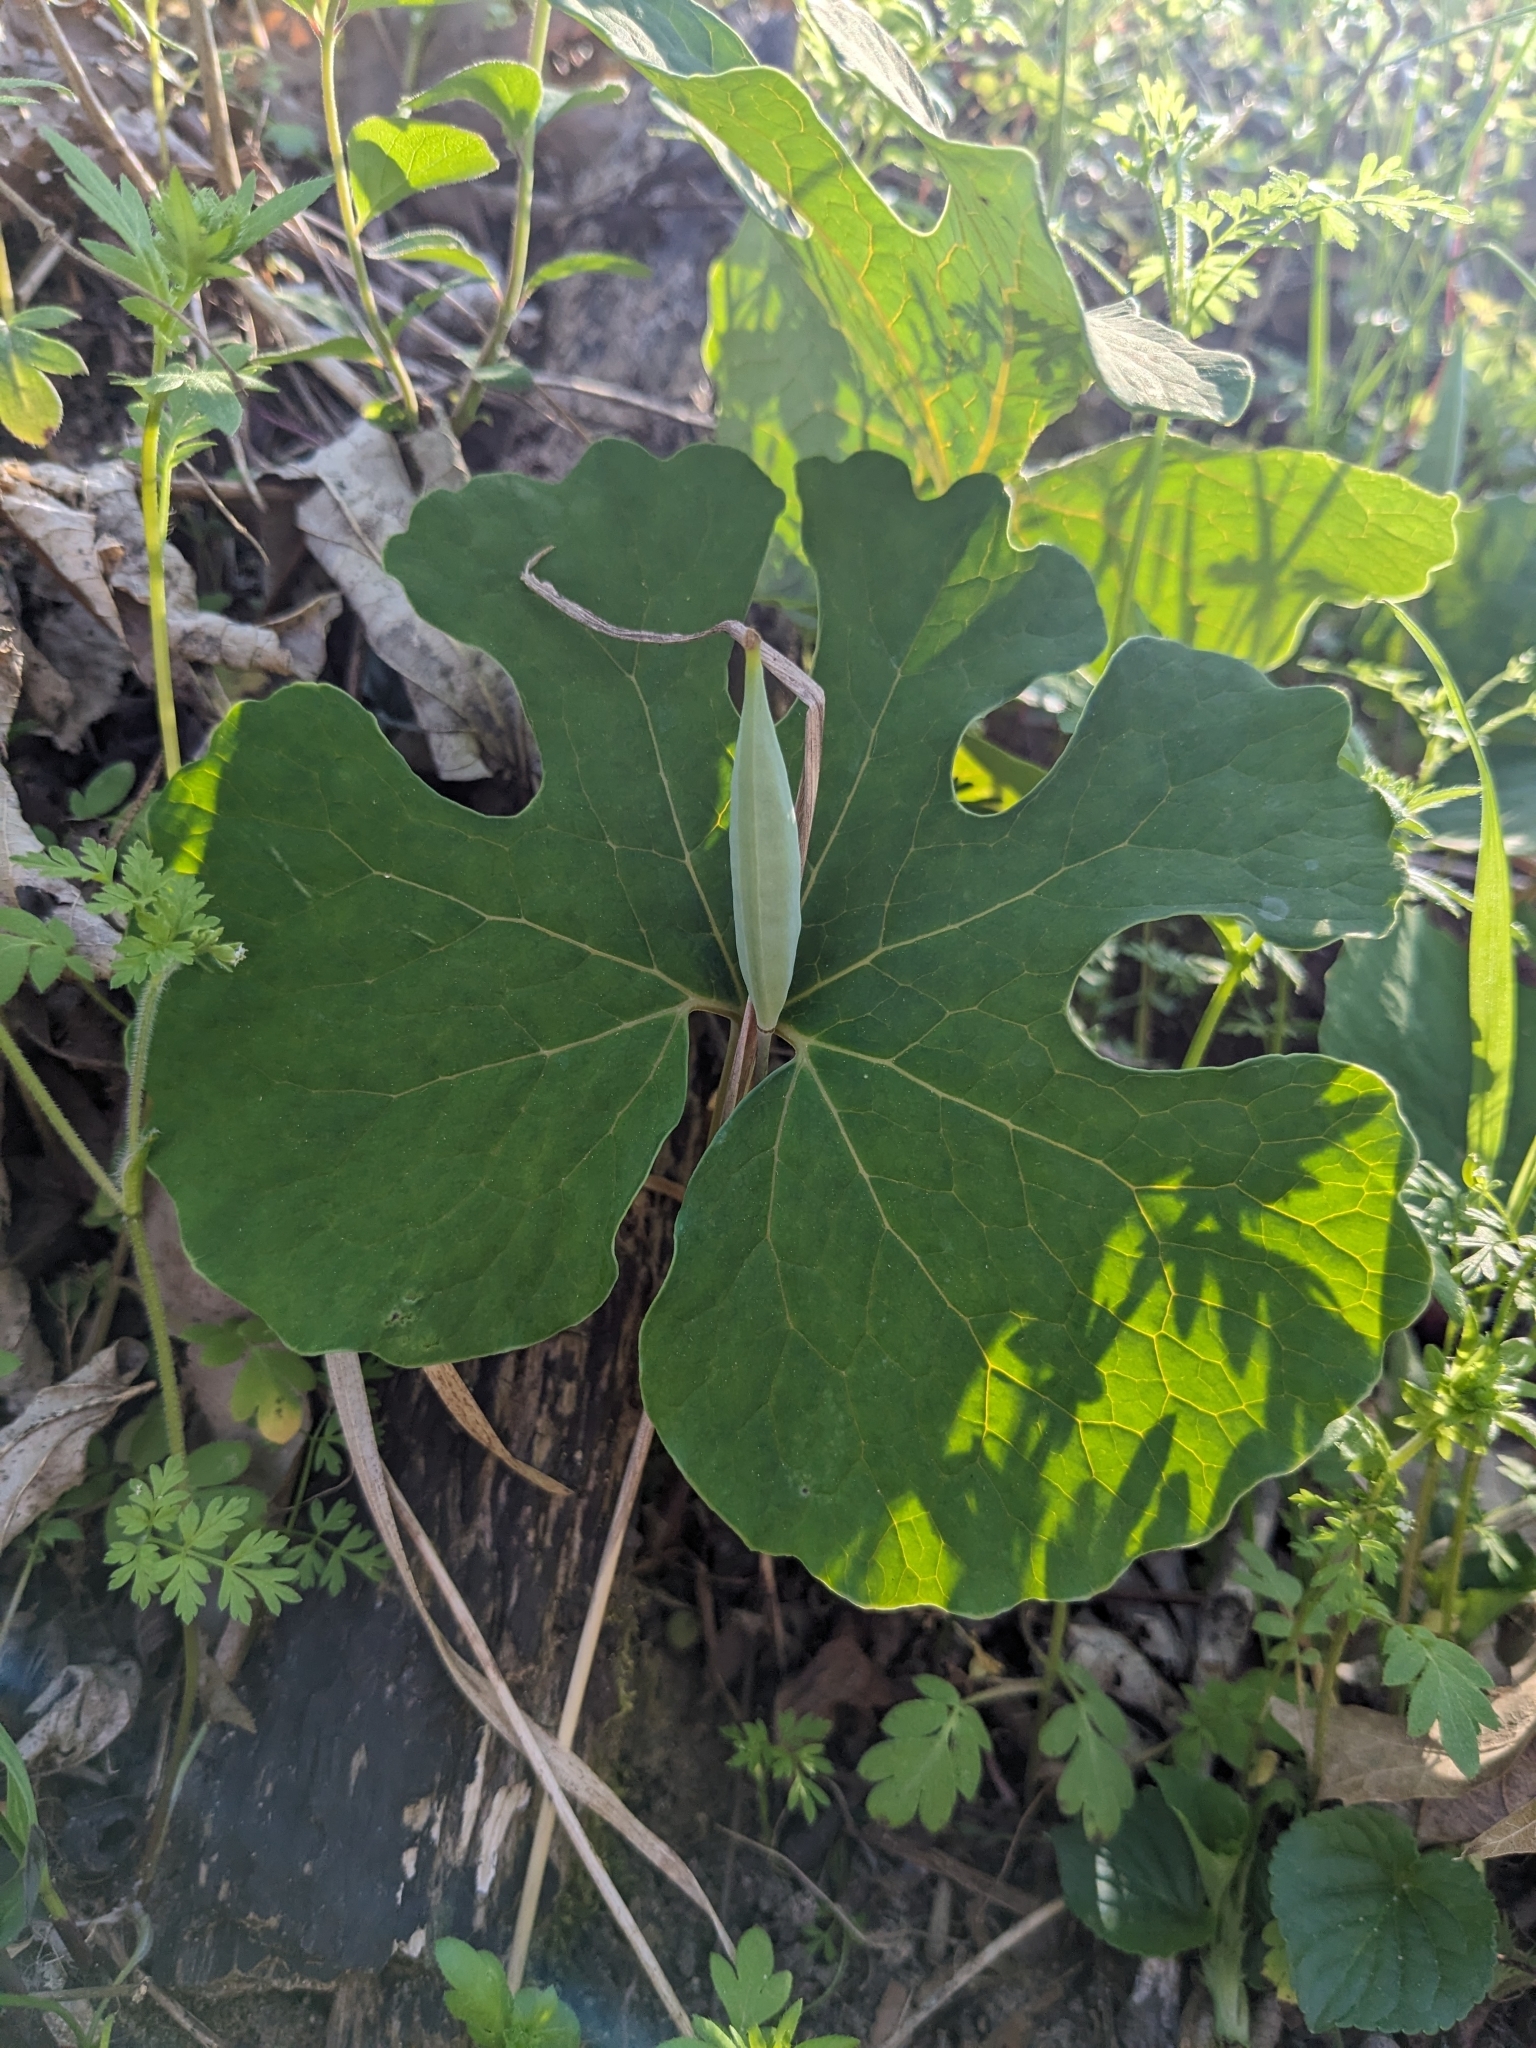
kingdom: Plantae
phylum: Tracheophyta
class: Magnoliopsida
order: Ranunculales
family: Papaveraceae
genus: Sanguinaria
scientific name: Sanguinaria canadensis
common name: Bloodroot
